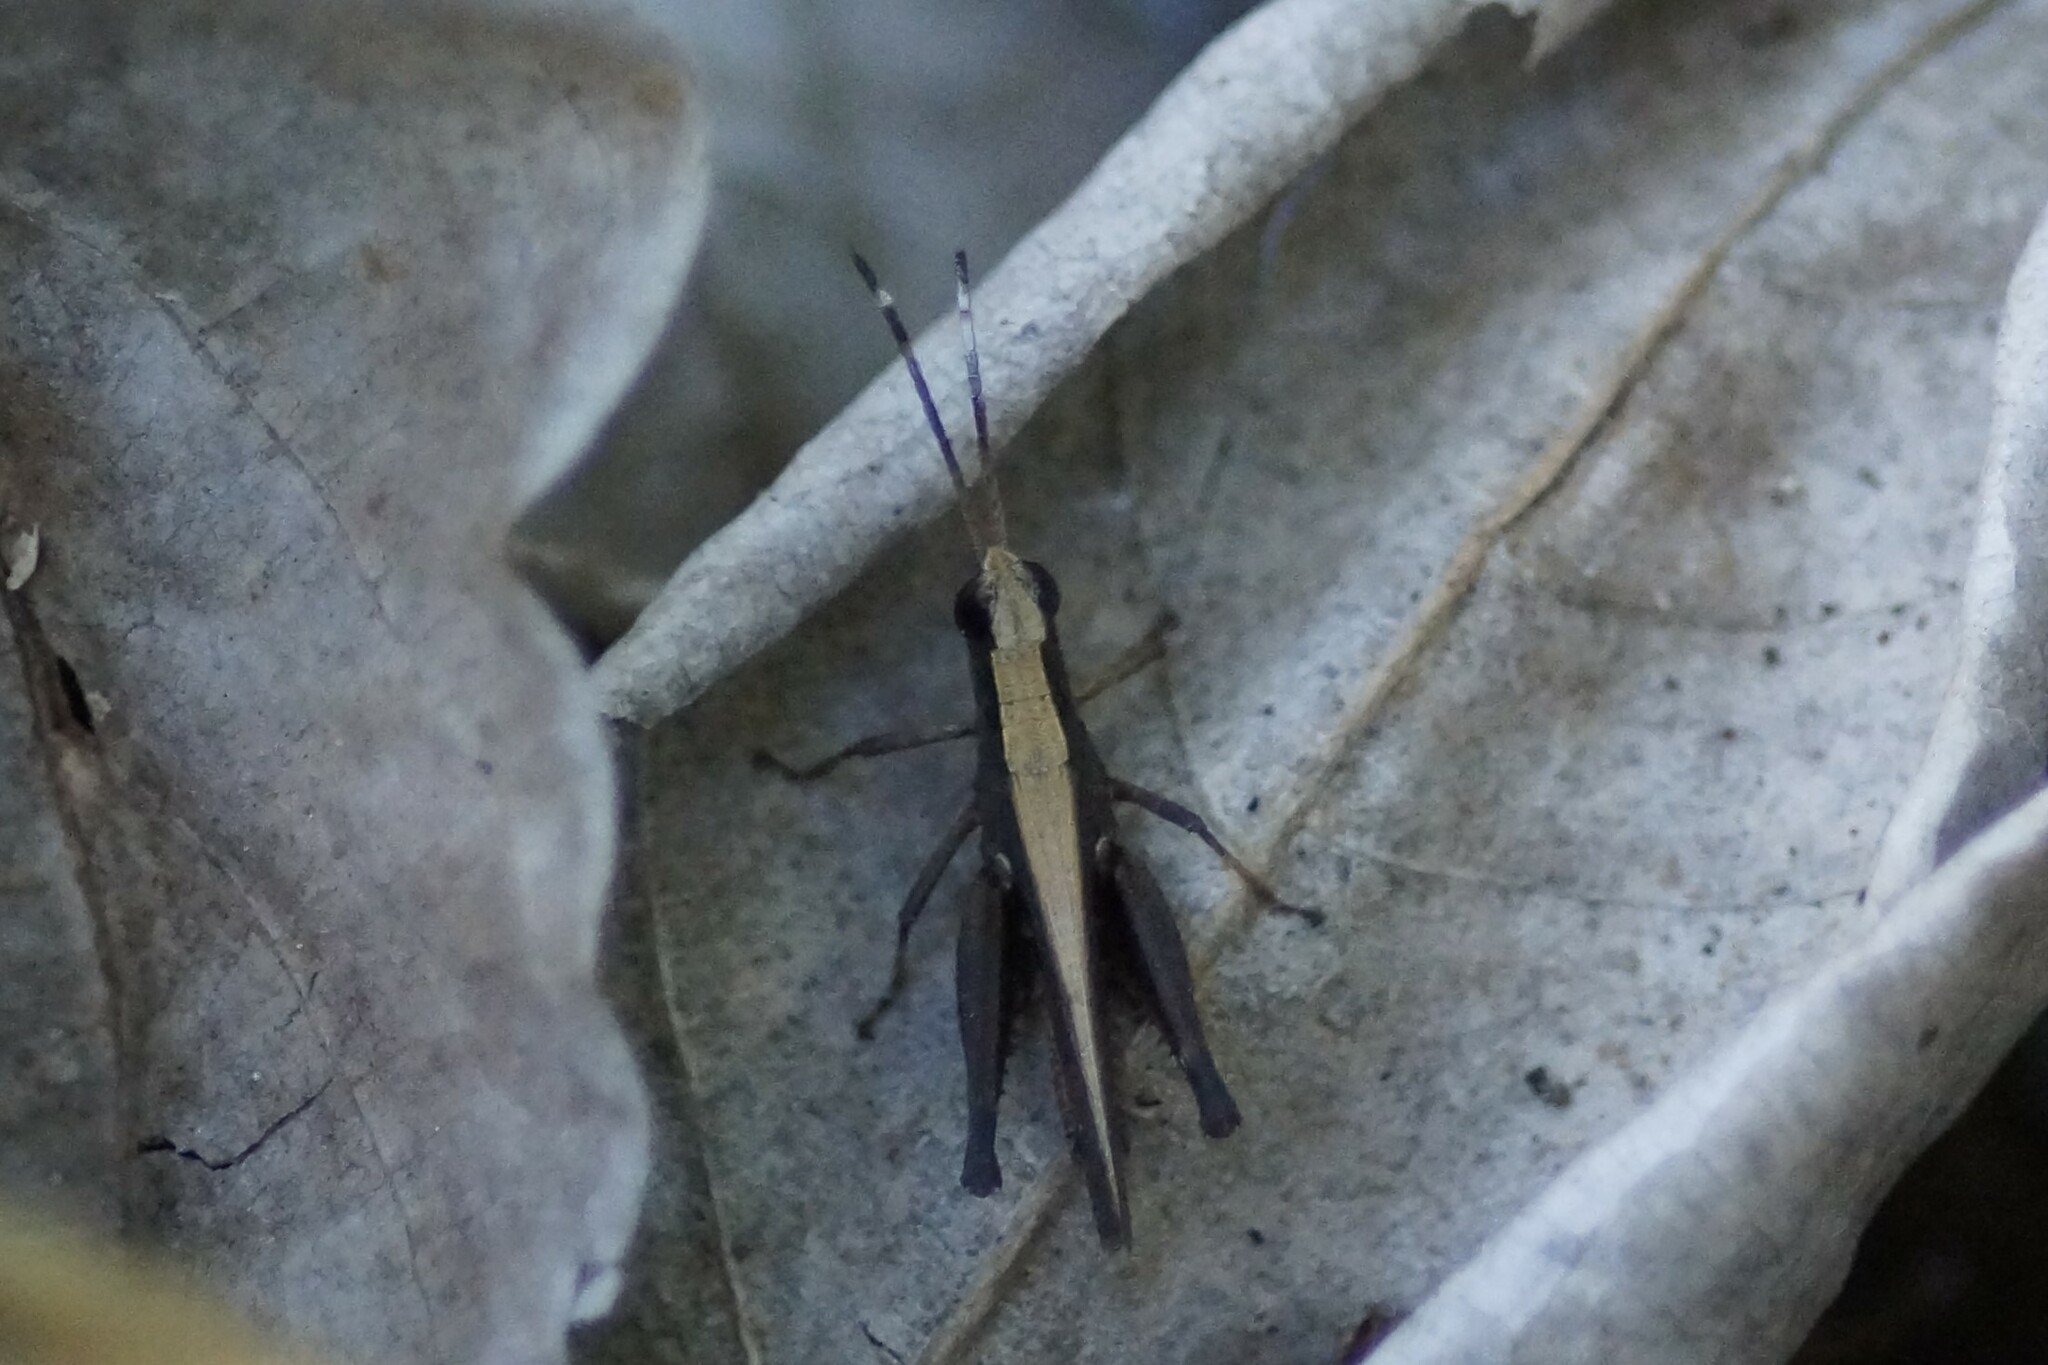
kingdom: Animalia
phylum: Arthropoda
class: Insecta
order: Orthoptera
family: Acrididae
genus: Rectitropis
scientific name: Rectitropis
